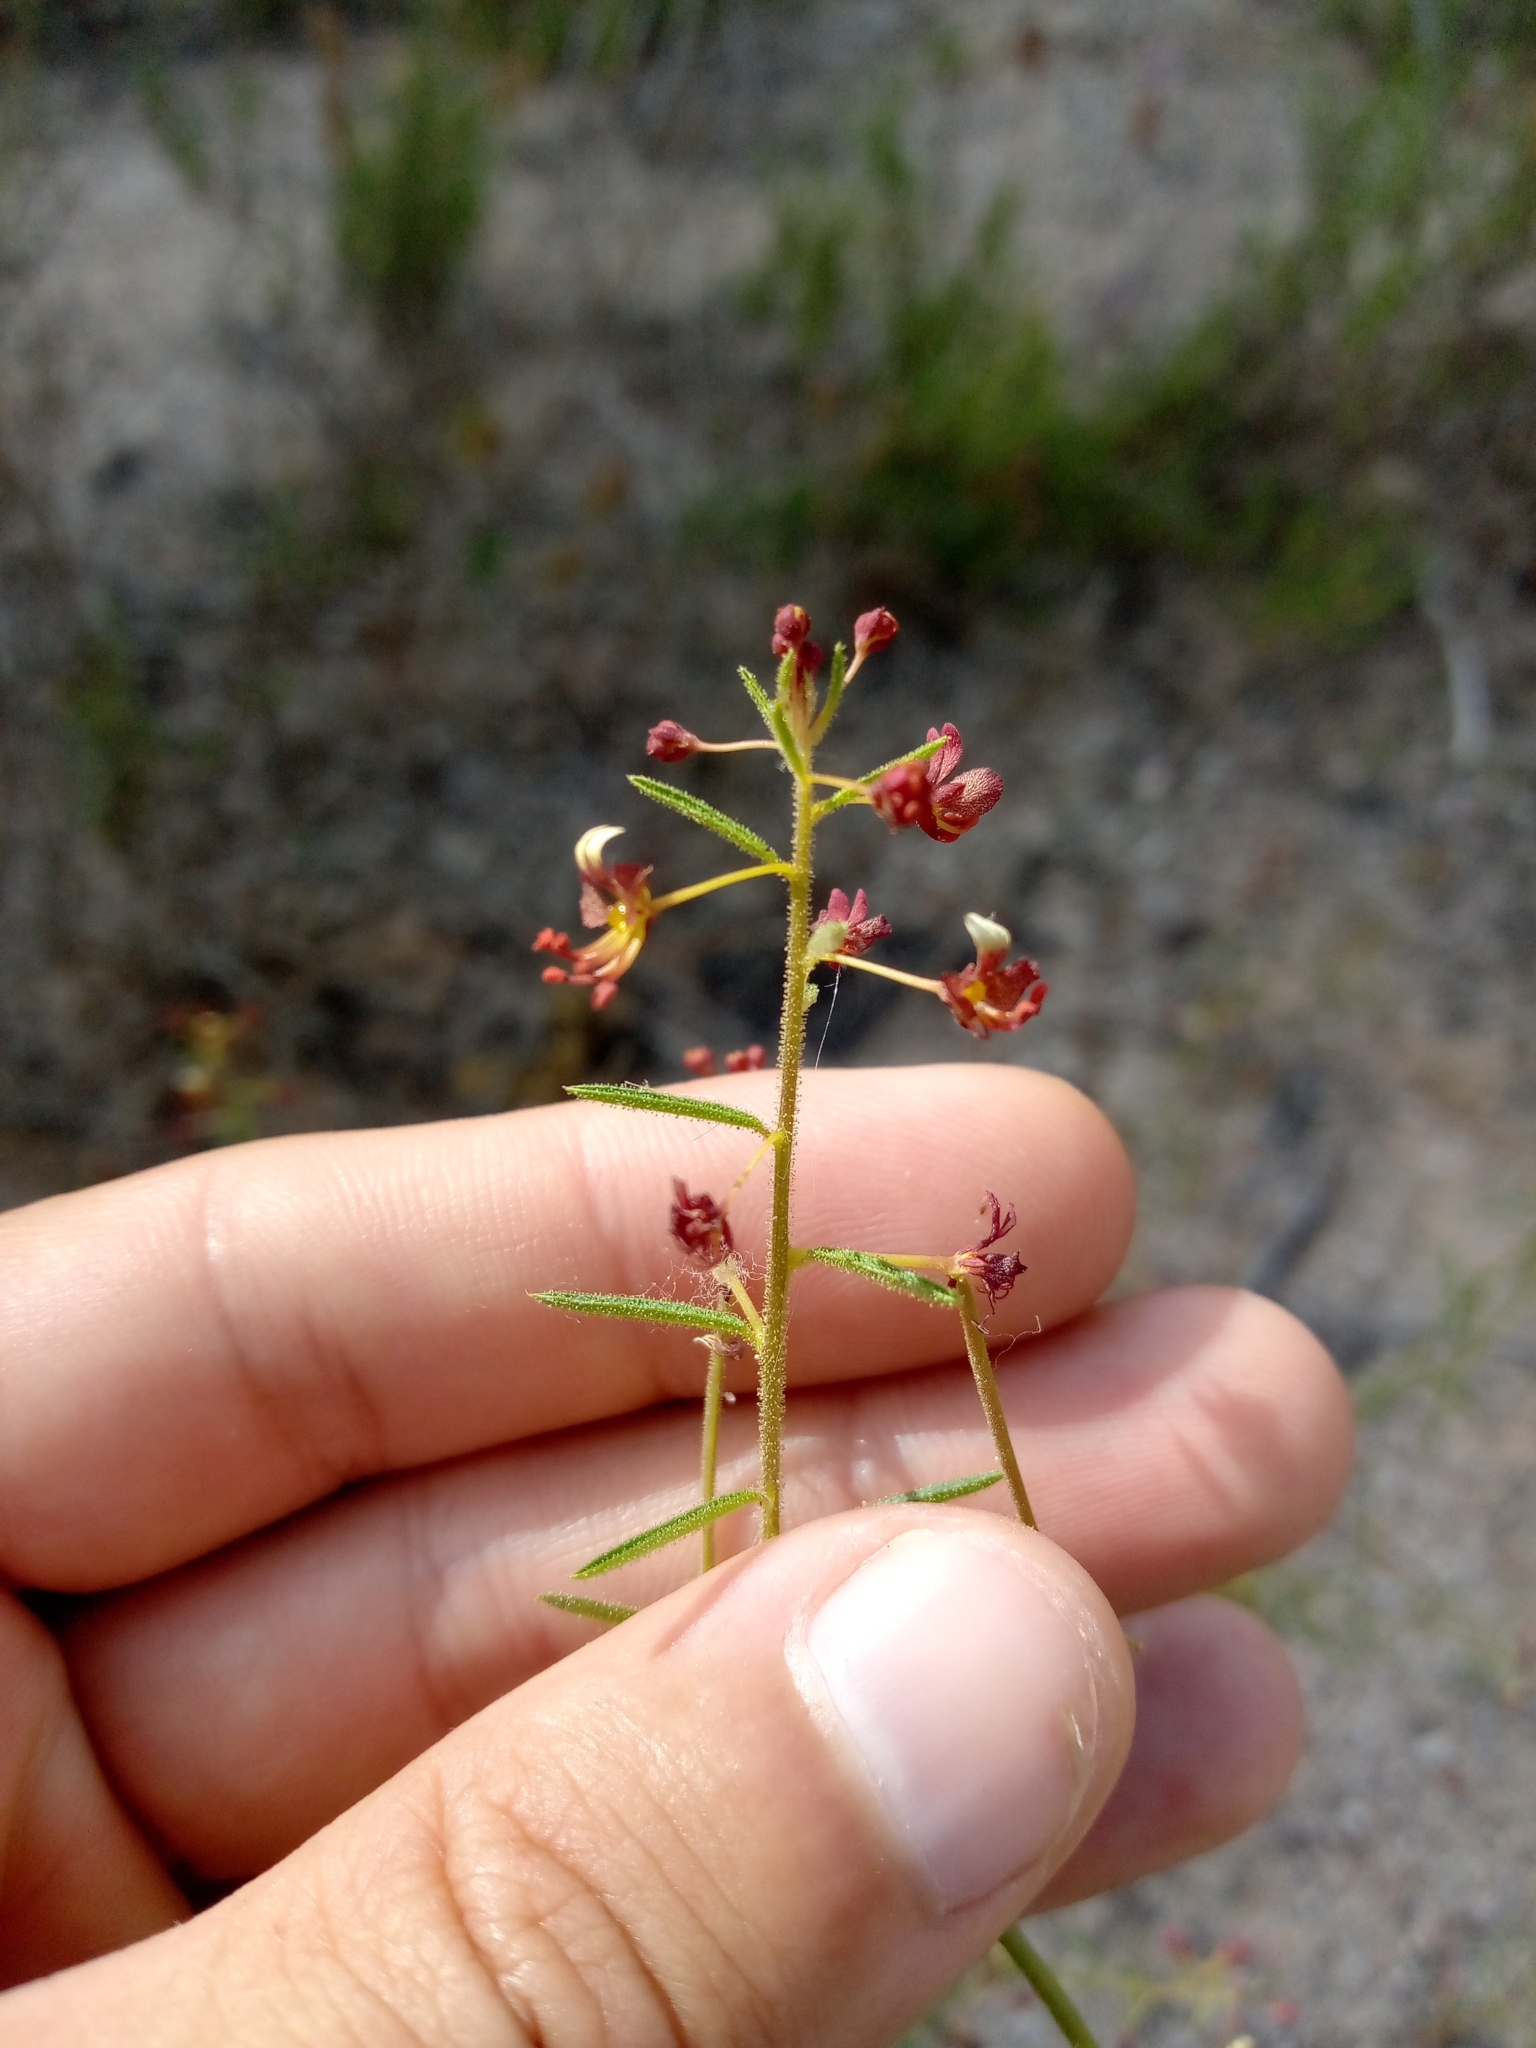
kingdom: Plantae
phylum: Tracheophyta
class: Magnoliopsida
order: Brassicales
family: Cleomaceae
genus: Cleome
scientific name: Cleome violacea
